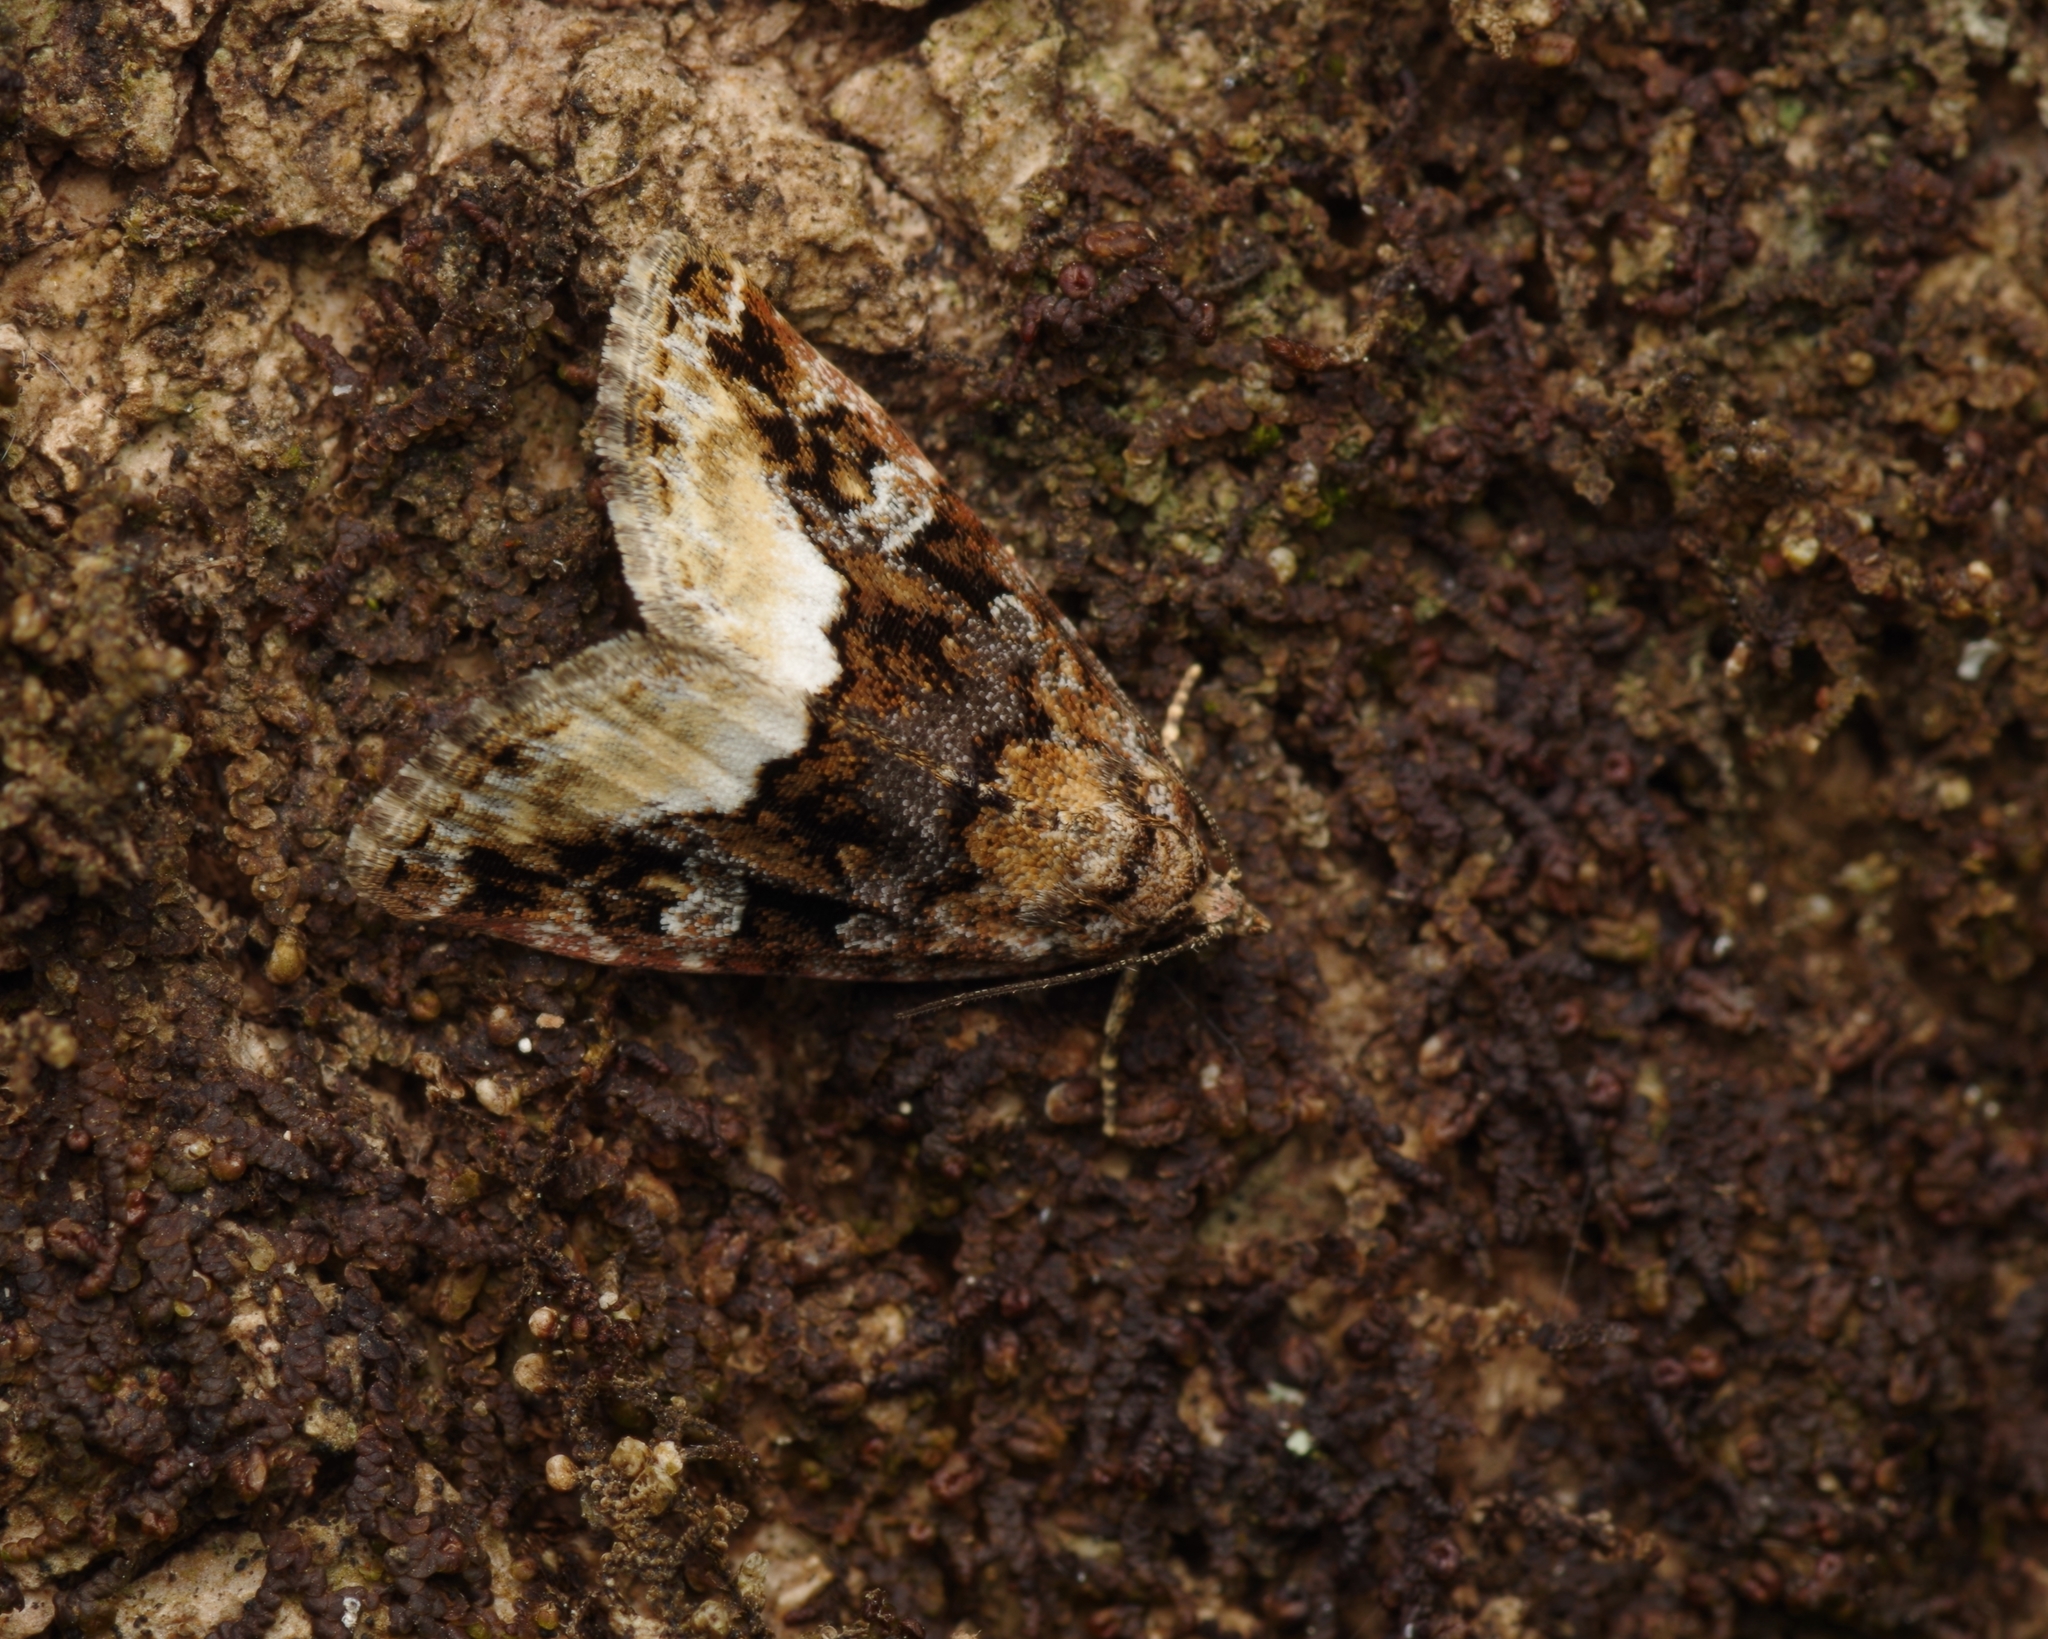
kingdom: Animalia
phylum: Arthropoda
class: Insecta
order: Lepidoptera
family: Noctuidae
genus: Deltote
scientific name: Deltote pygarga
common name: Marbled white spot
